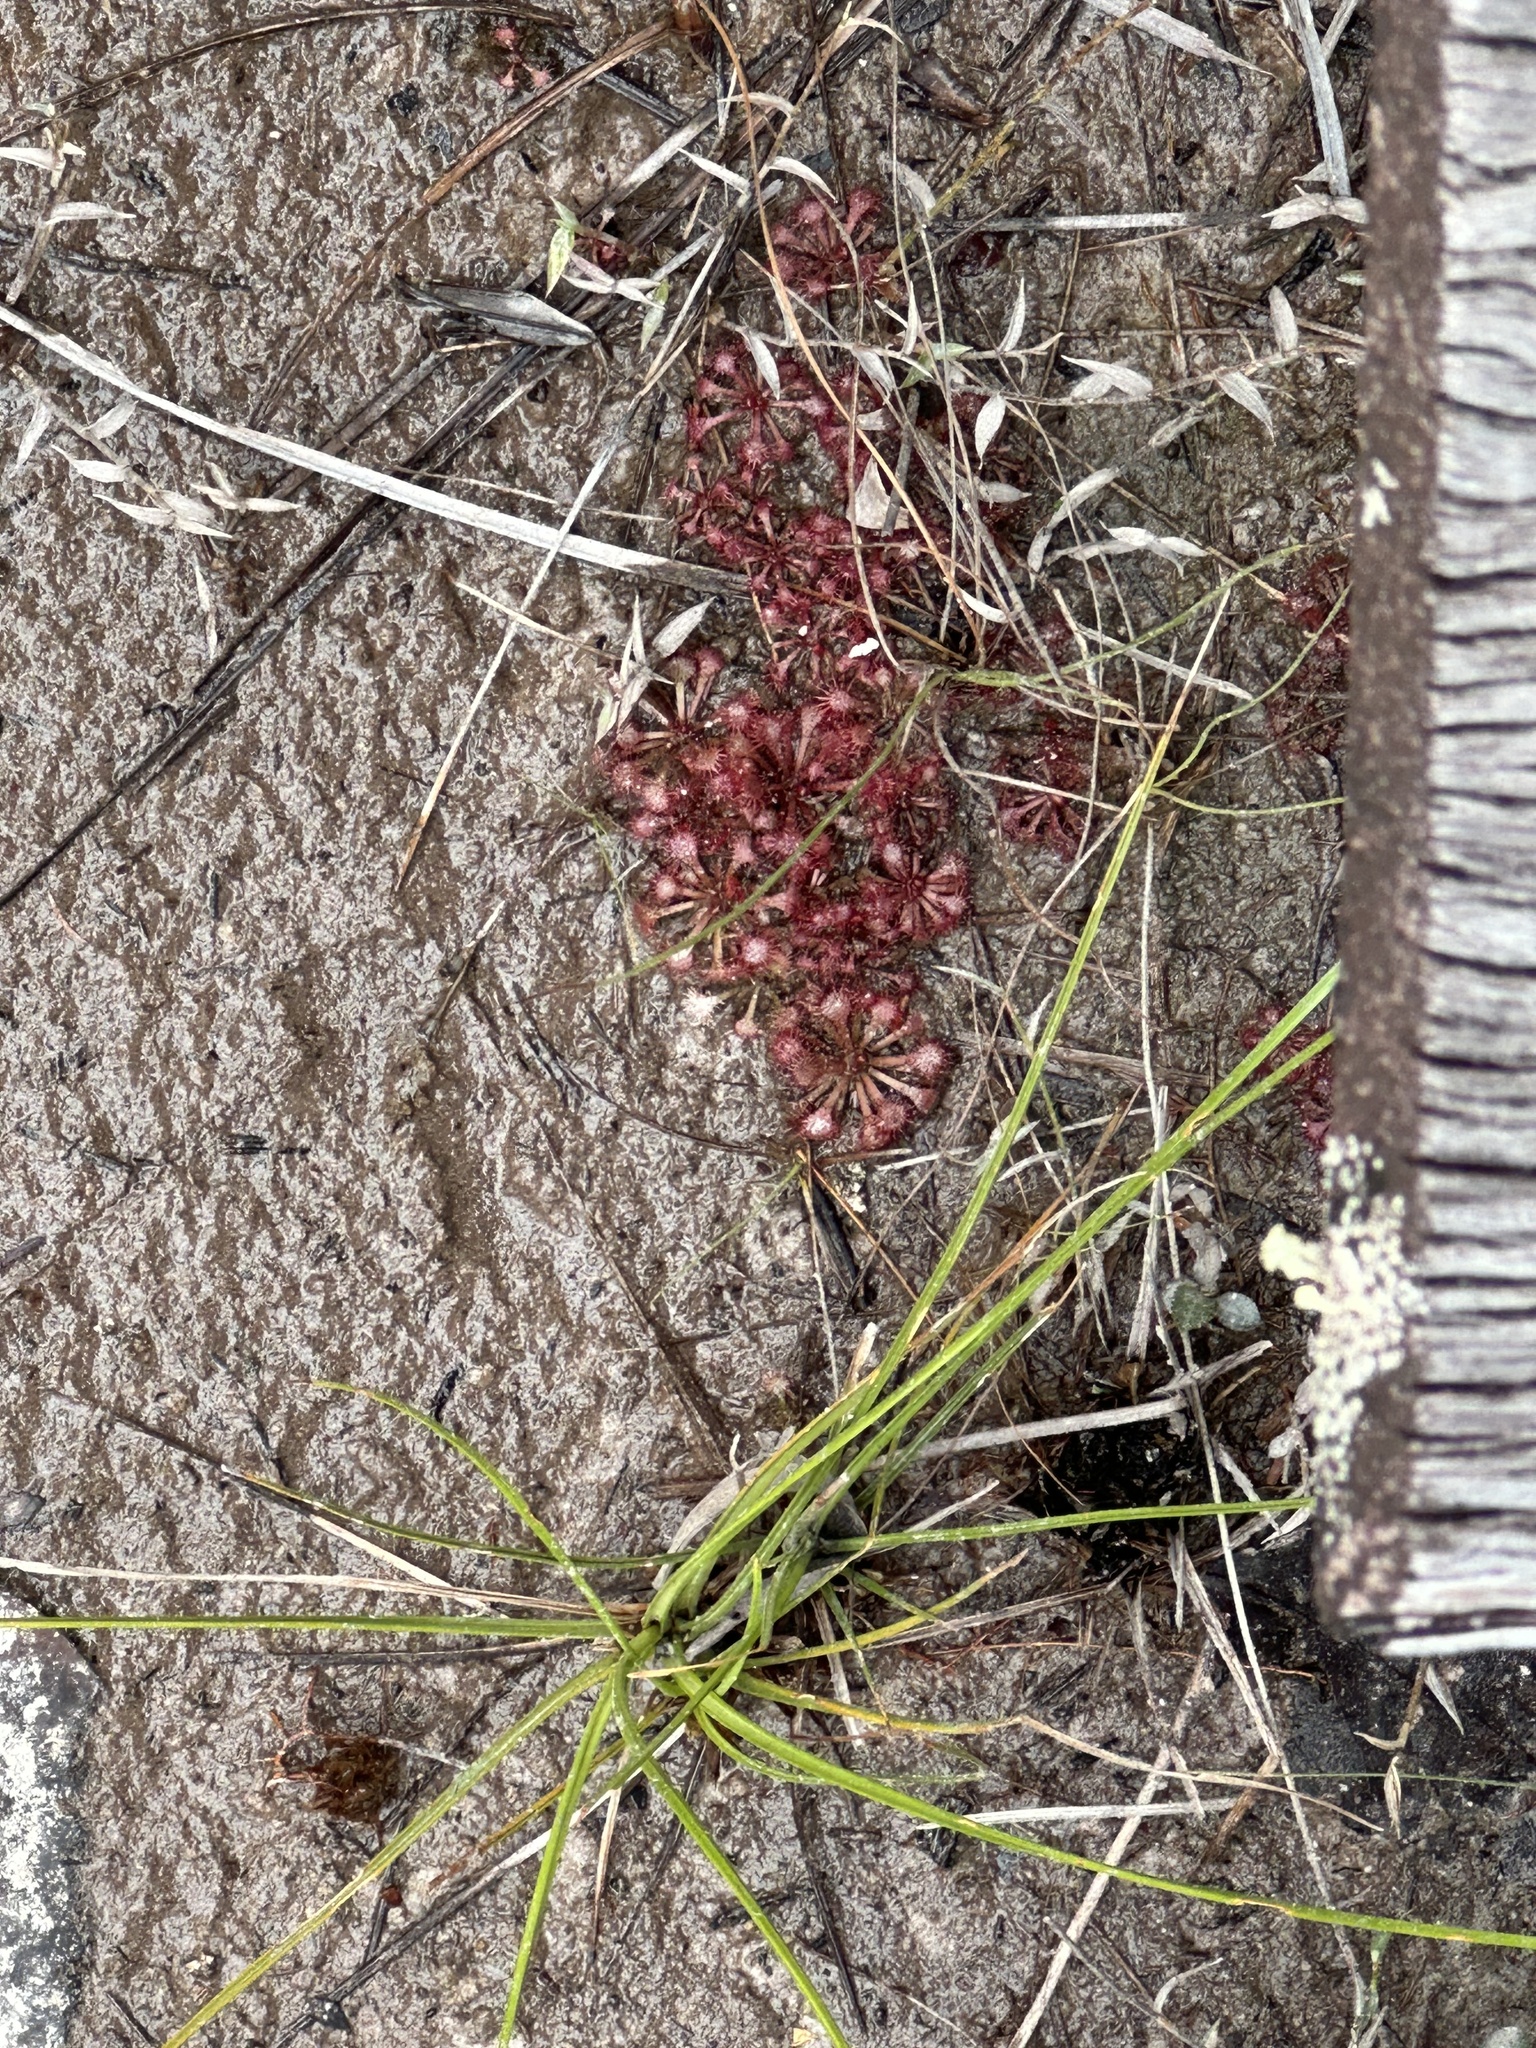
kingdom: Plantae
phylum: Tracheophyta
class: Magnoliopsida
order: Caryophyllales
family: Droseraceae
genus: Drosera
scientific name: Drosera spatulata
